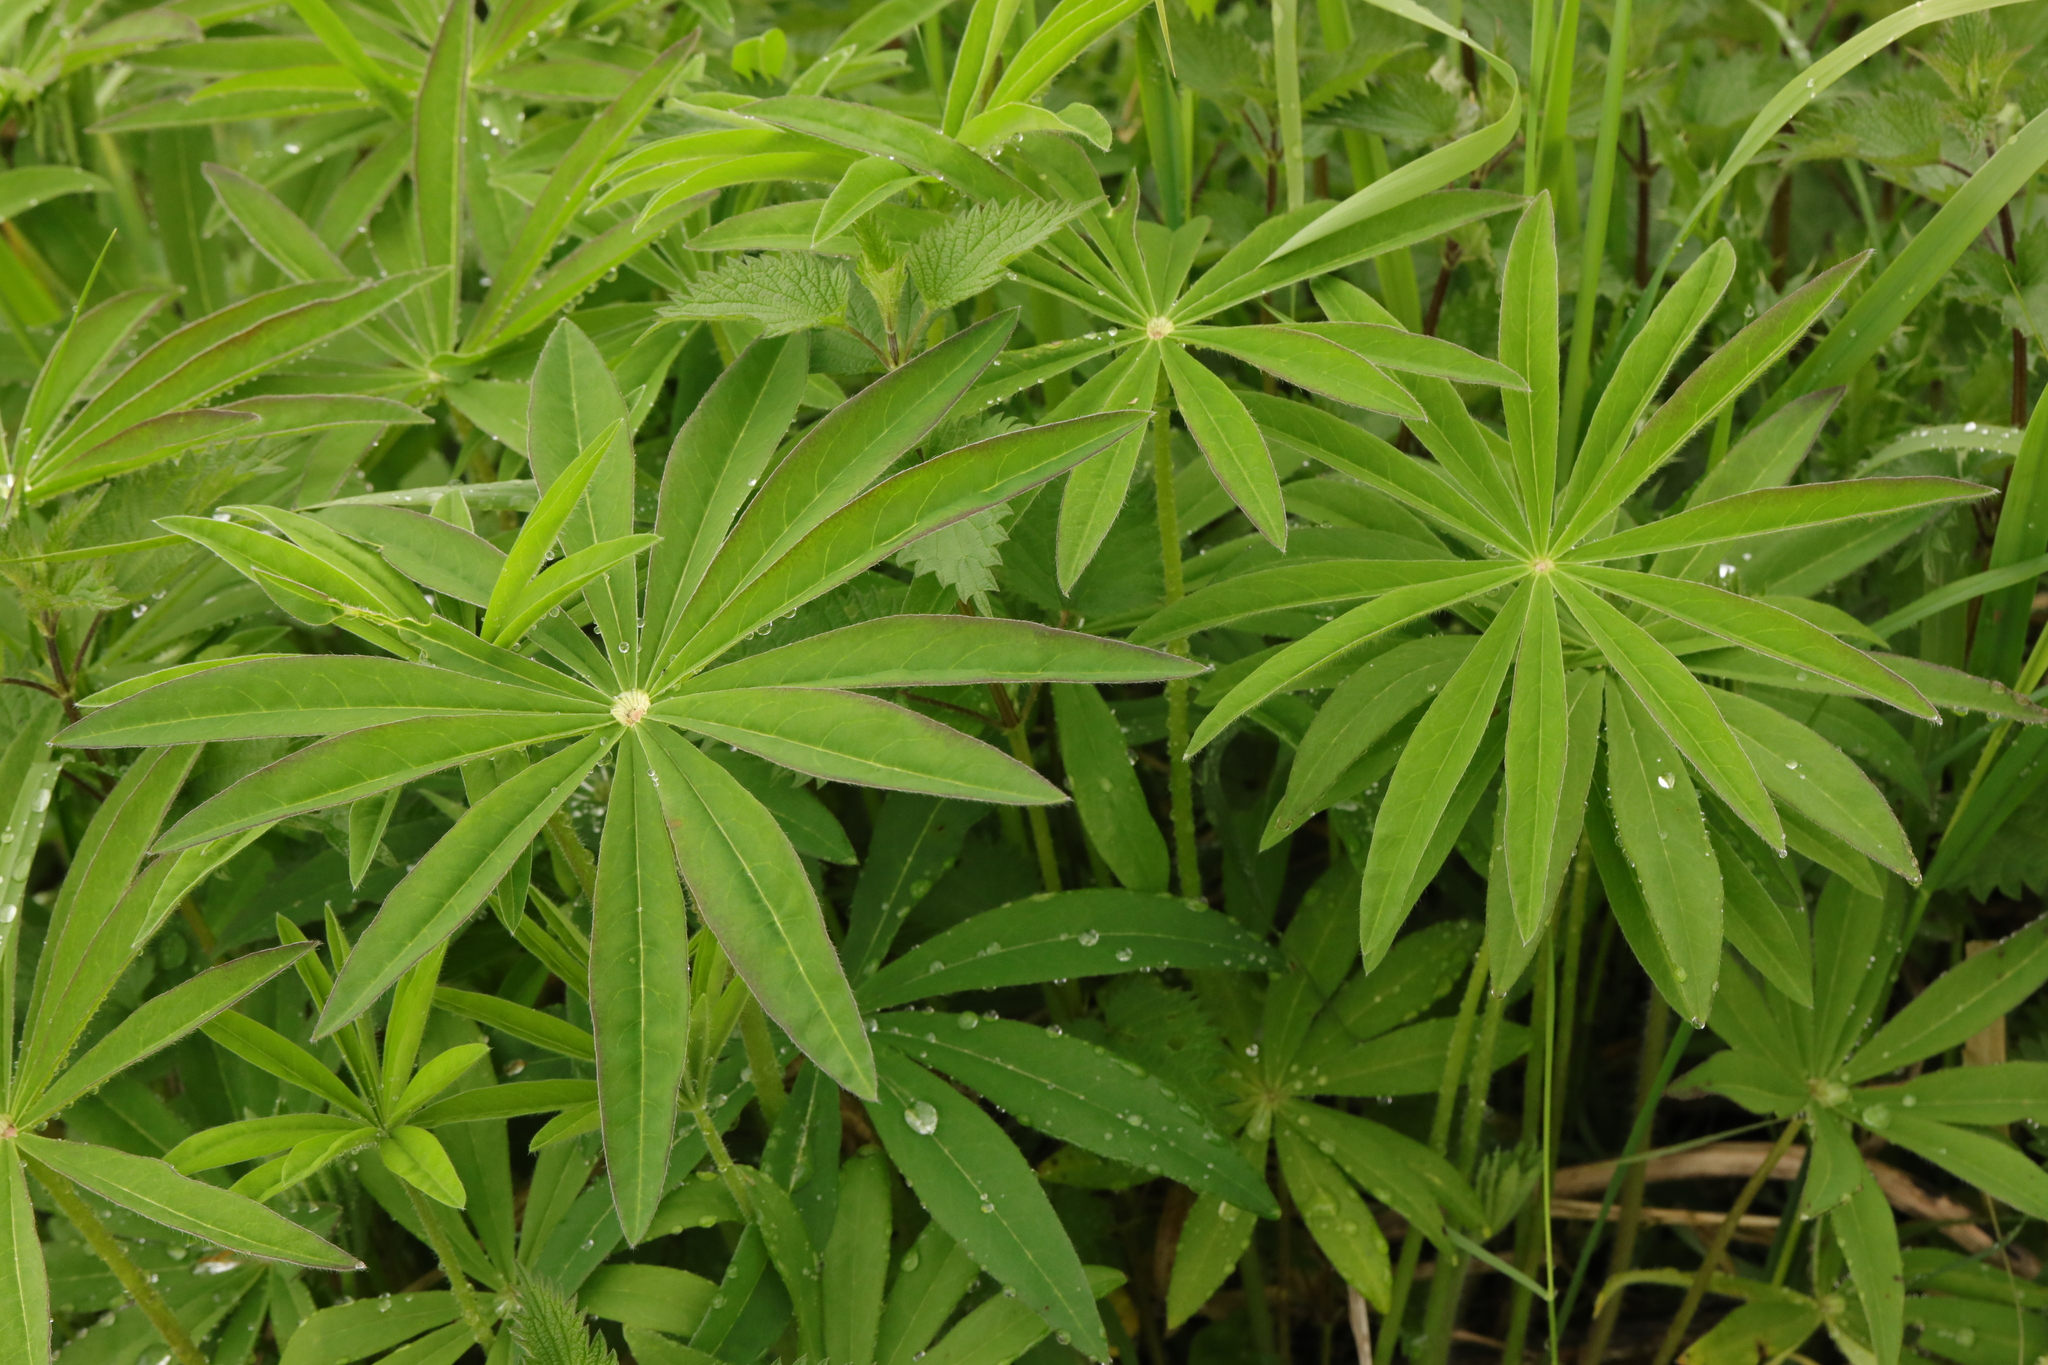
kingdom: Plantae
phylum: Tracheophyta
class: Magnoliopsida
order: Fabales
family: Fabaceae
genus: Lupinus
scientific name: Lupinus polyphyllus
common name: Garden lupin
